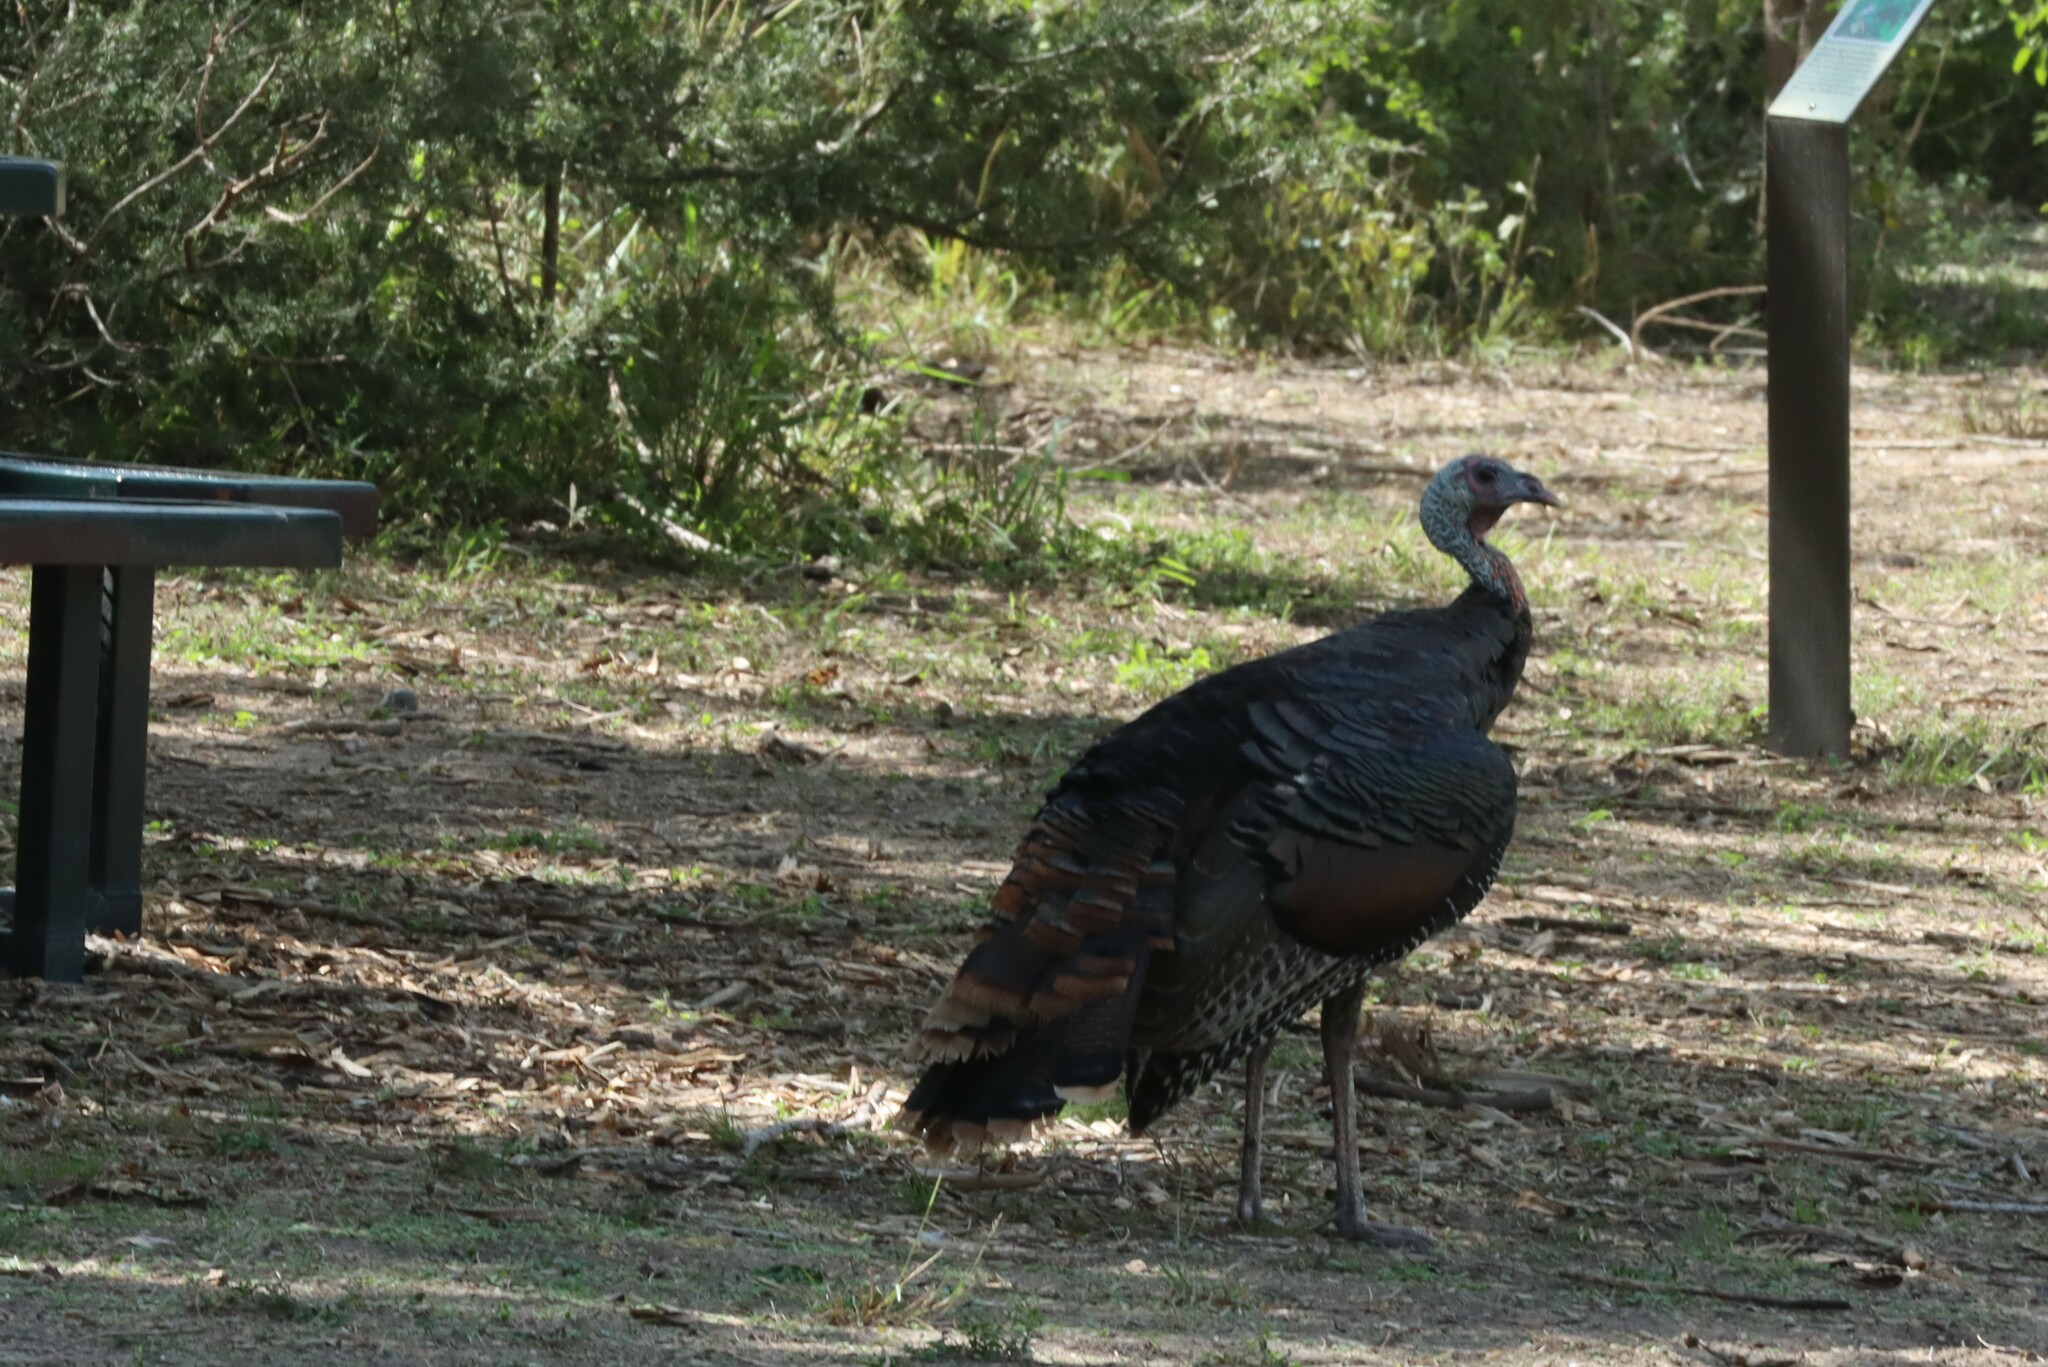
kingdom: Animalia
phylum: Chordata
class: Aves
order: Galliformes
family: Phasianidae
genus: Meleagris
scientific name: Meleagris gallopavo
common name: Wild turkey
